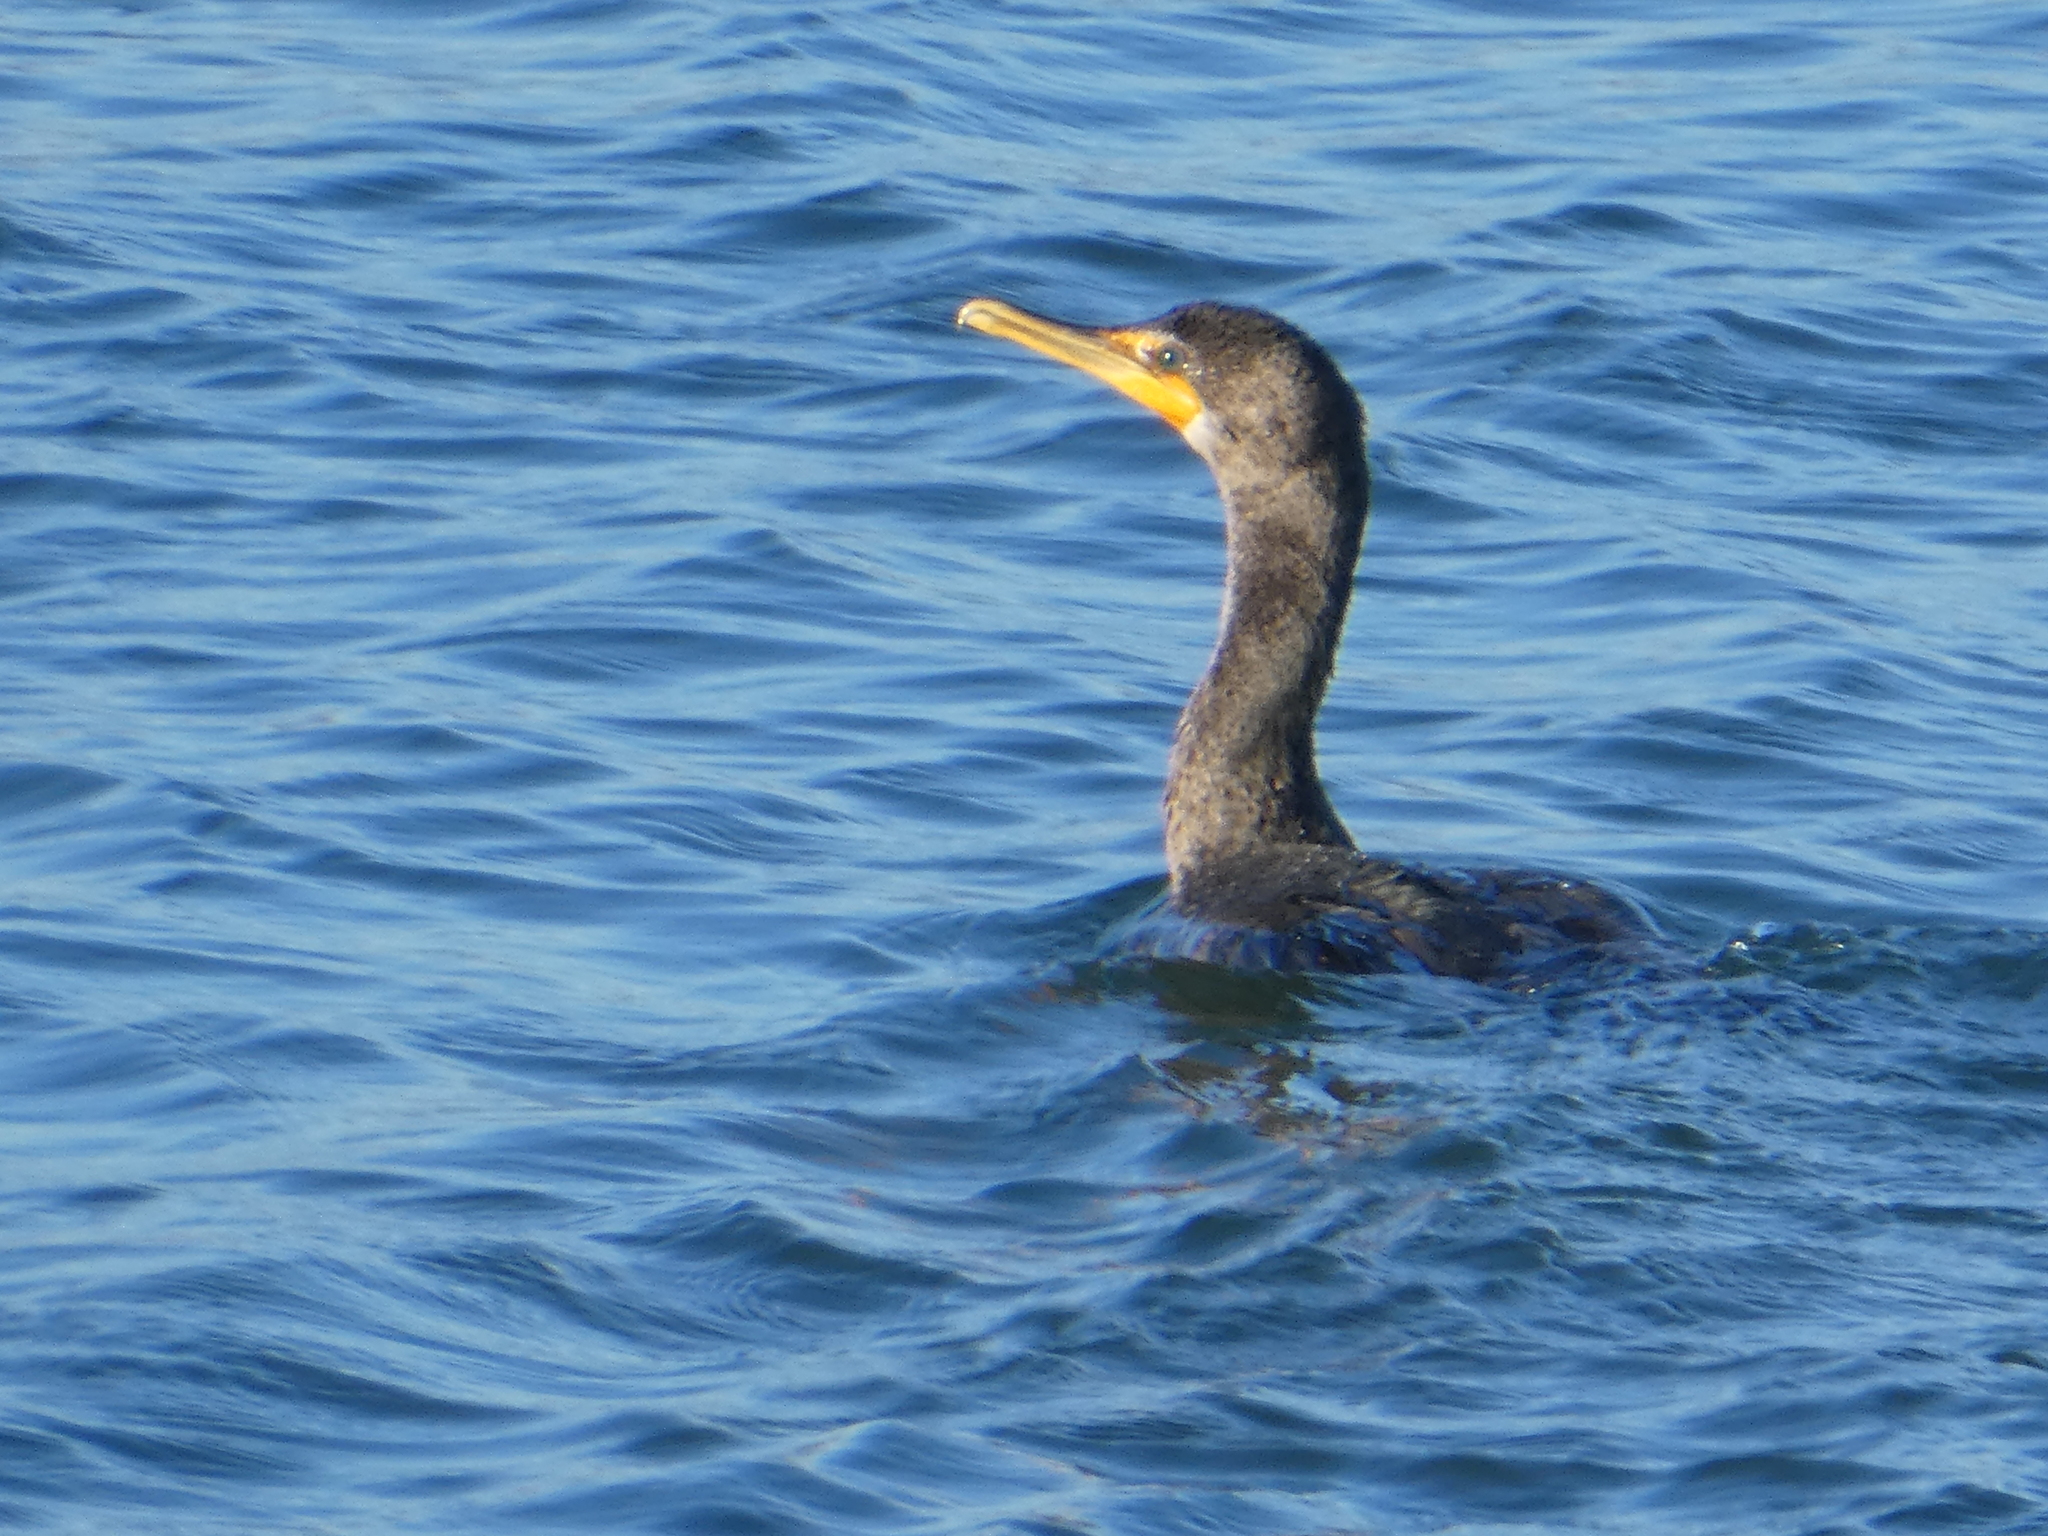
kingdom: Animalia
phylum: Chordata
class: Aves
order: Suliformes
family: Phalacrocoracidae
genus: Phalacrocorax
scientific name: Phalacrocorax auritus
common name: Double-crested cormorant
